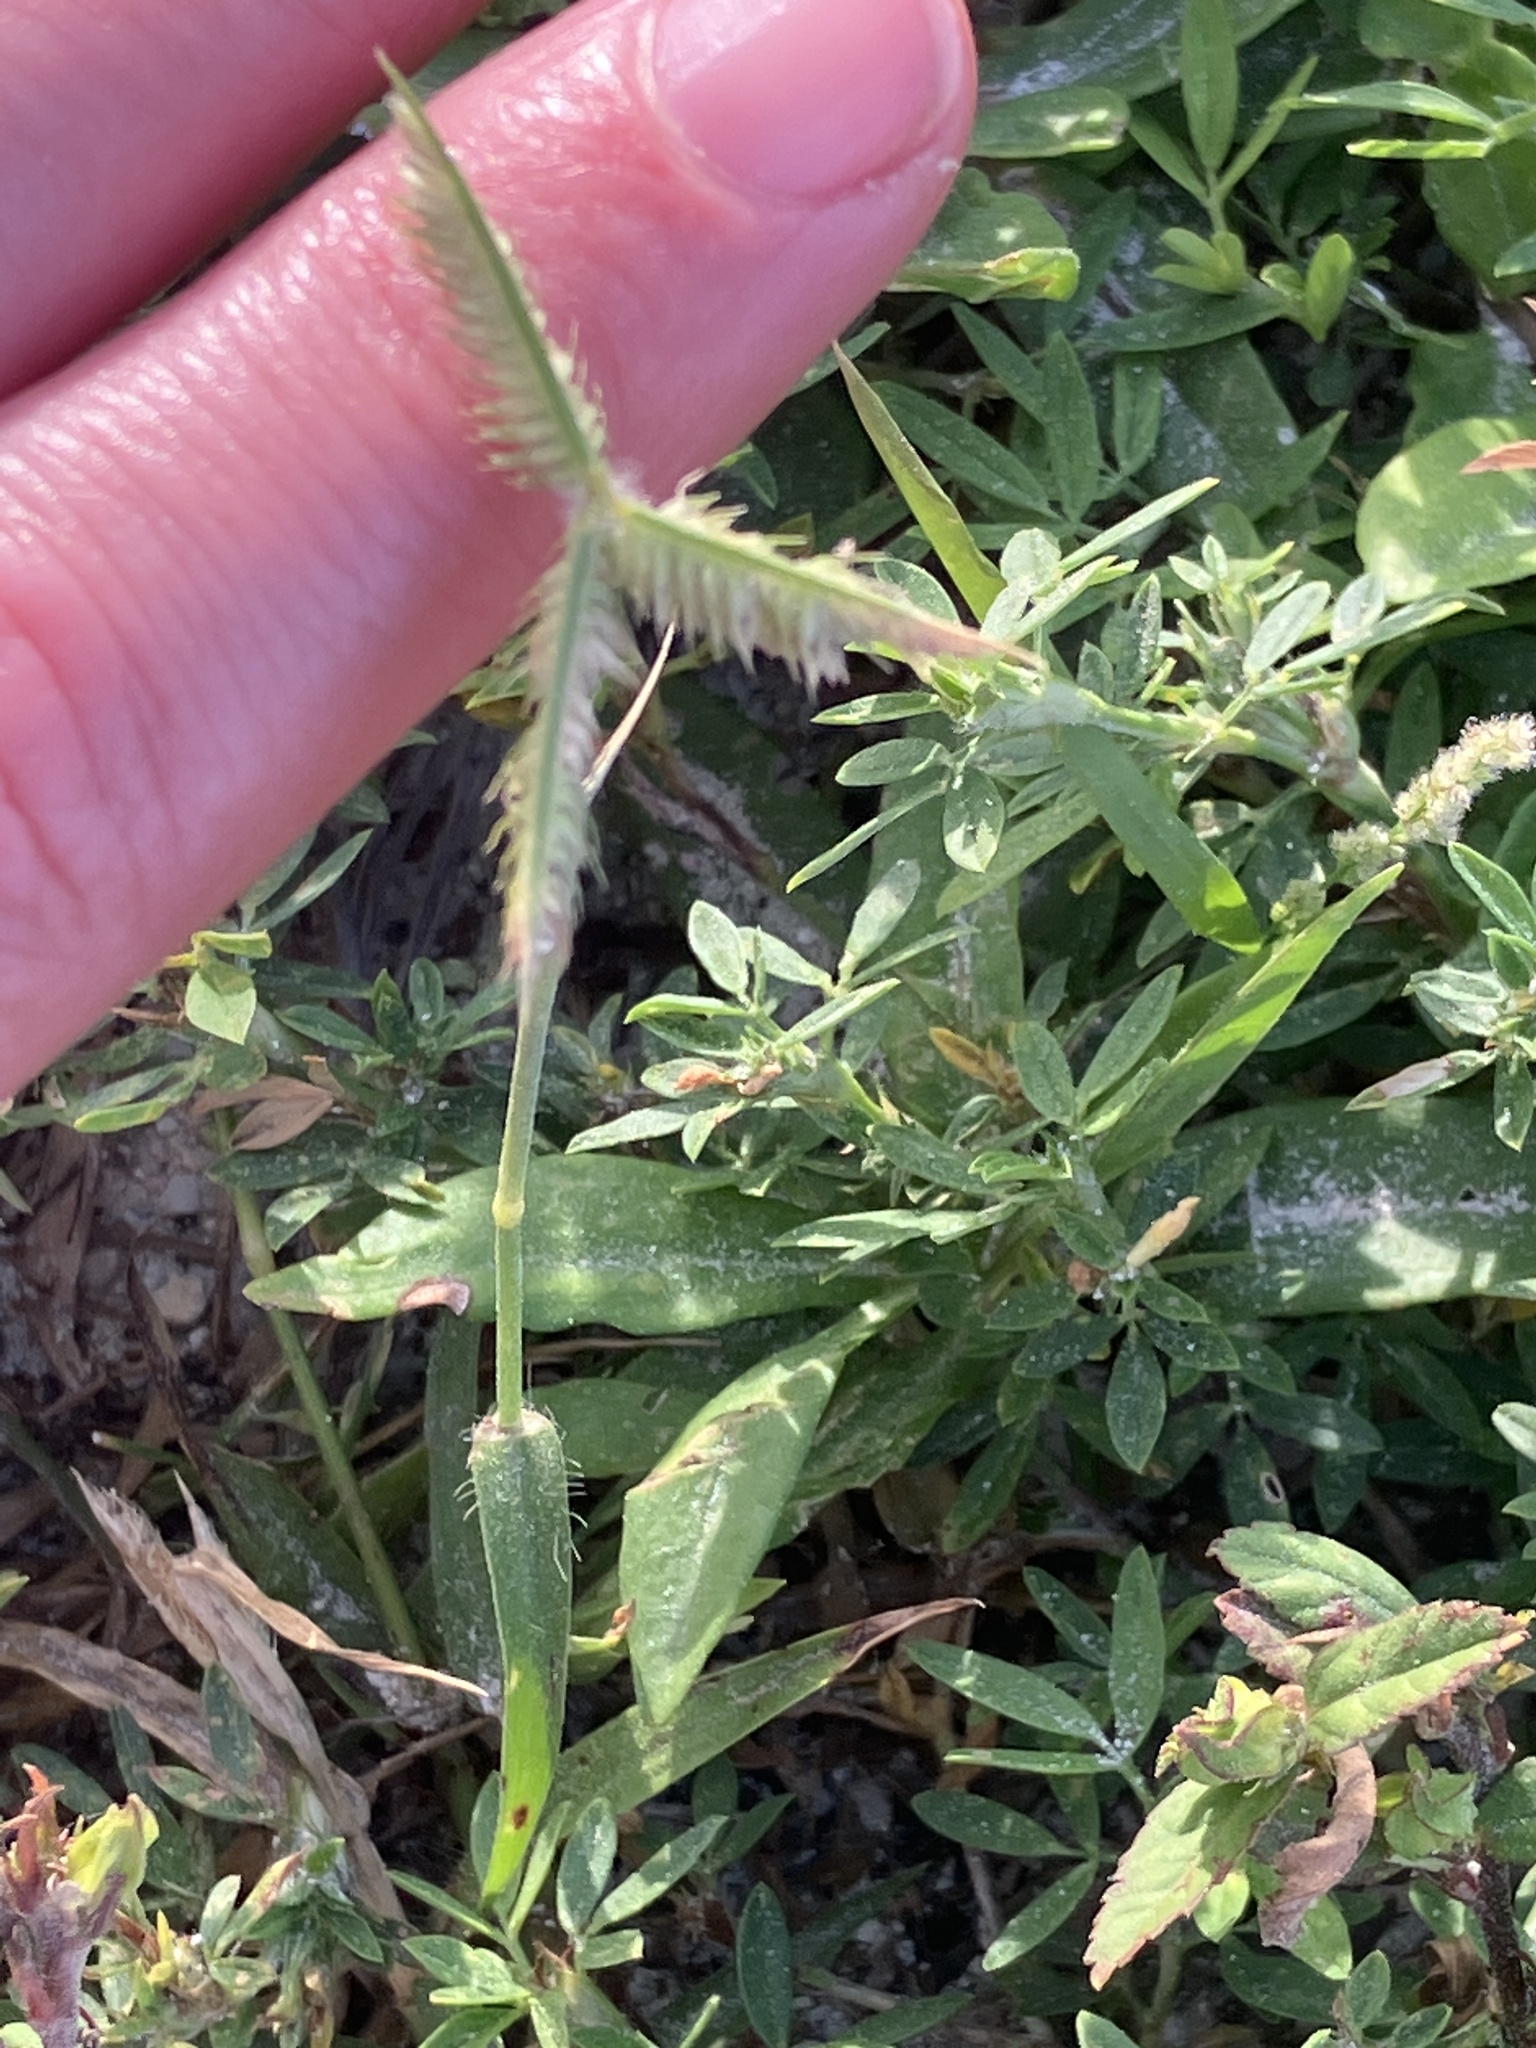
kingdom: Plantae
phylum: Tracheophyta
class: Liliopsida
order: Poales
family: Poaceae
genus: Dactyloctenium
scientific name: Dactyloctenium aegyptium
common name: Egyptian grass
